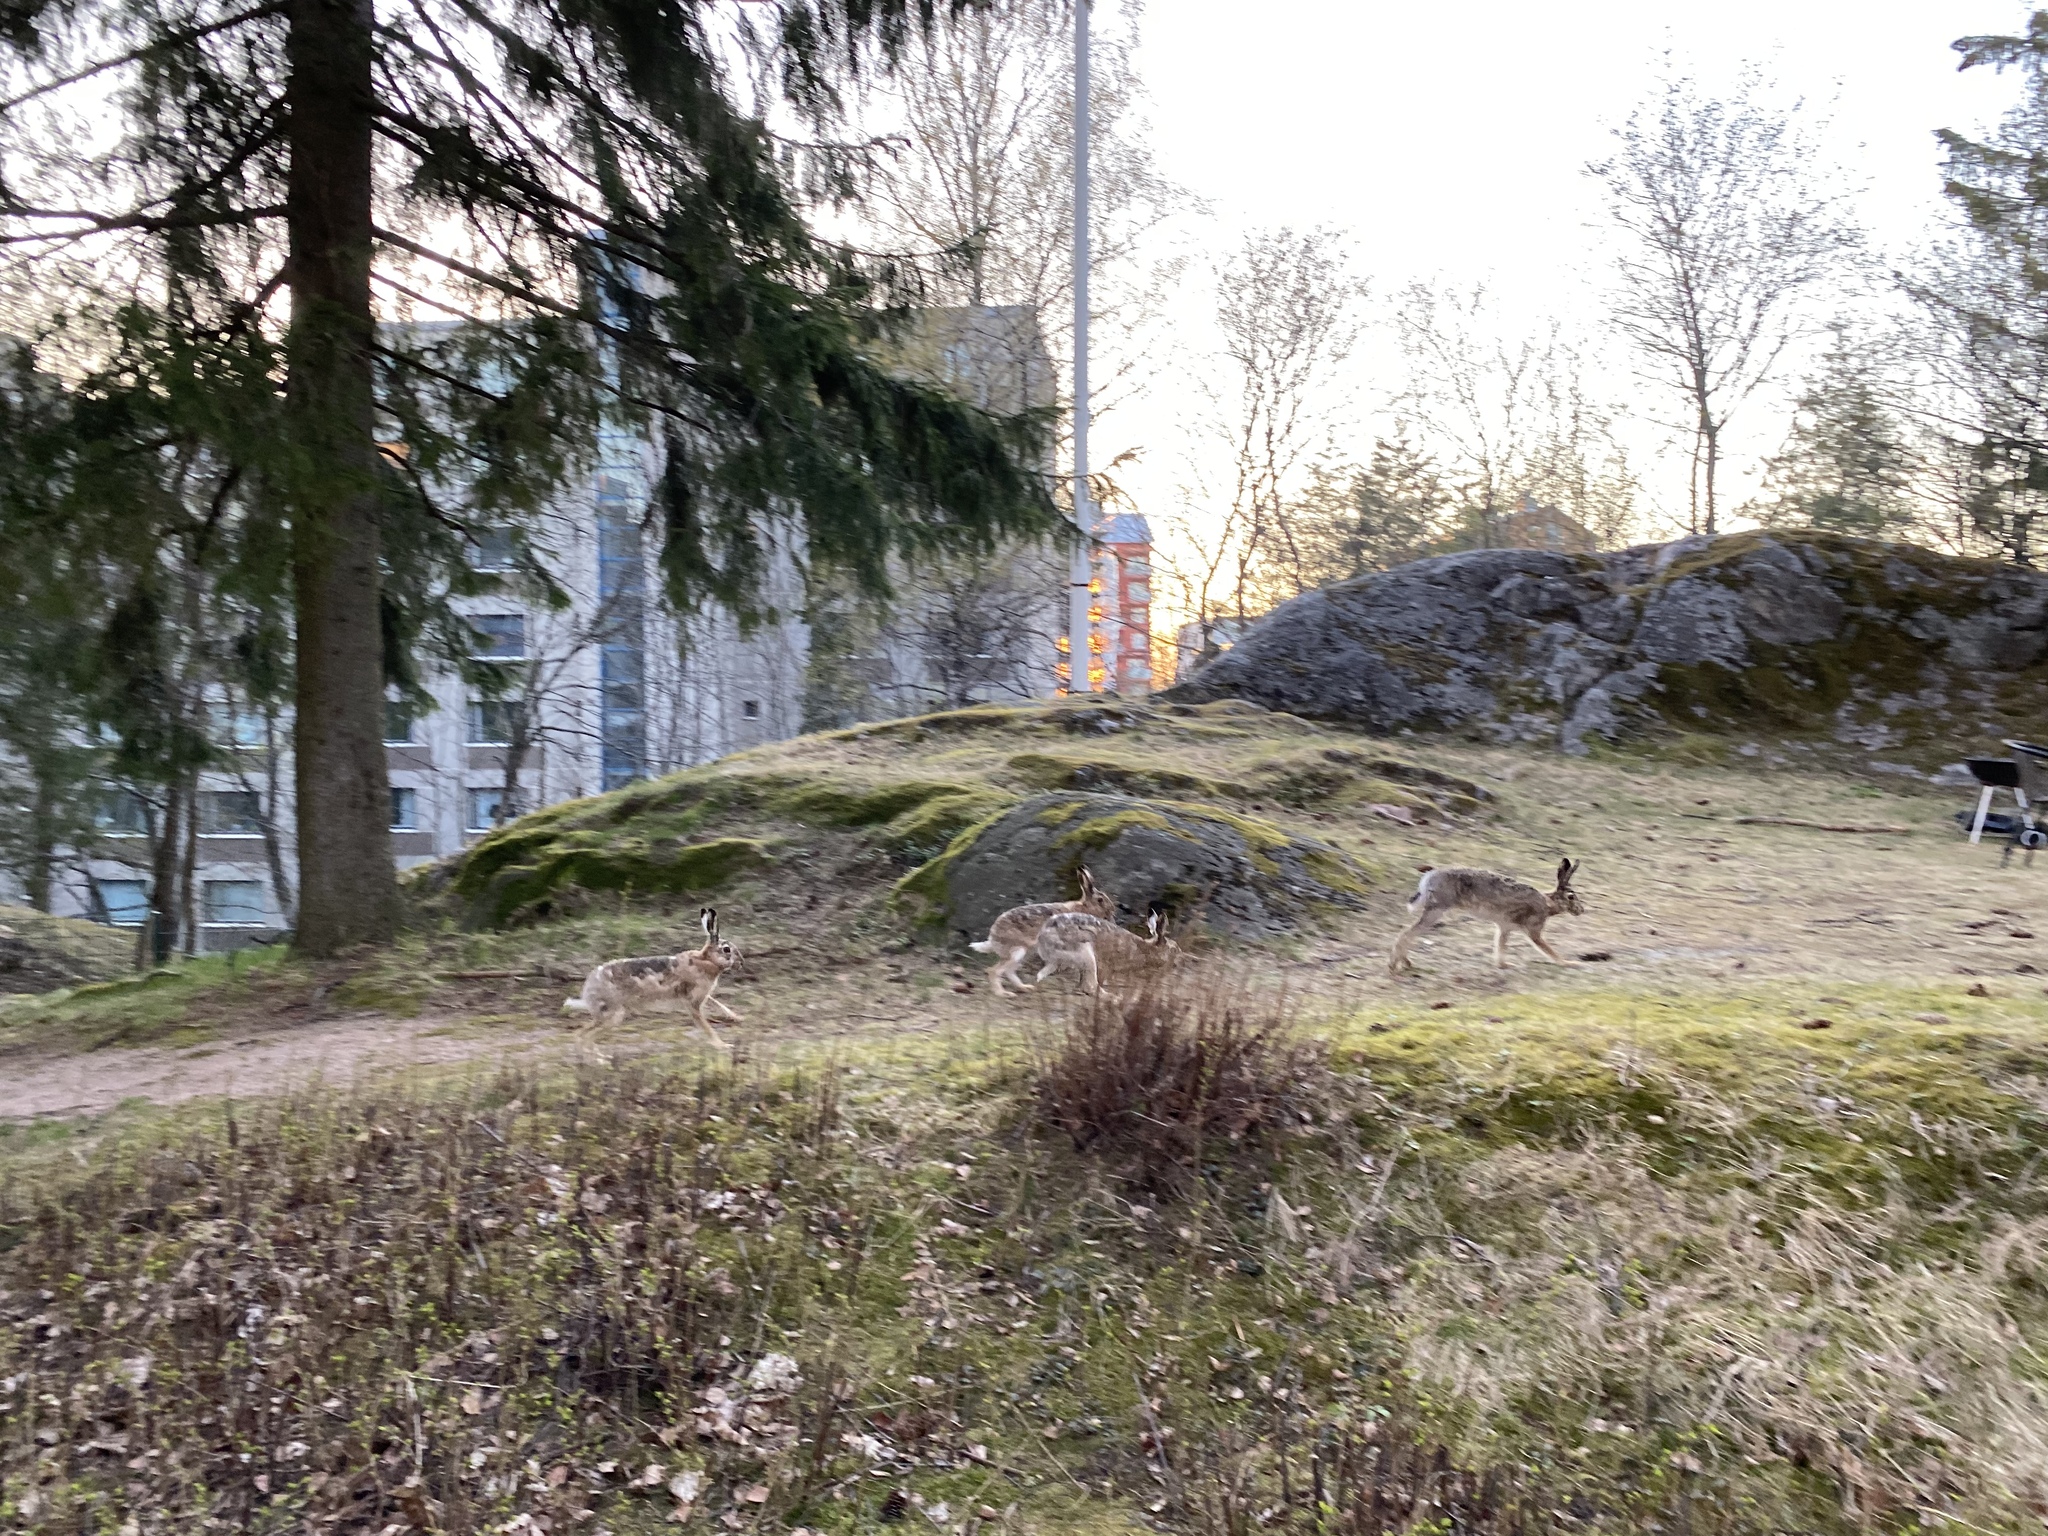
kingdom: Animalia
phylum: Chordata
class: Mammalia
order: Lagomorpha
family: Leporidae
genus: Lepus
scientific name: Lepus europaeus
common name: European hare
